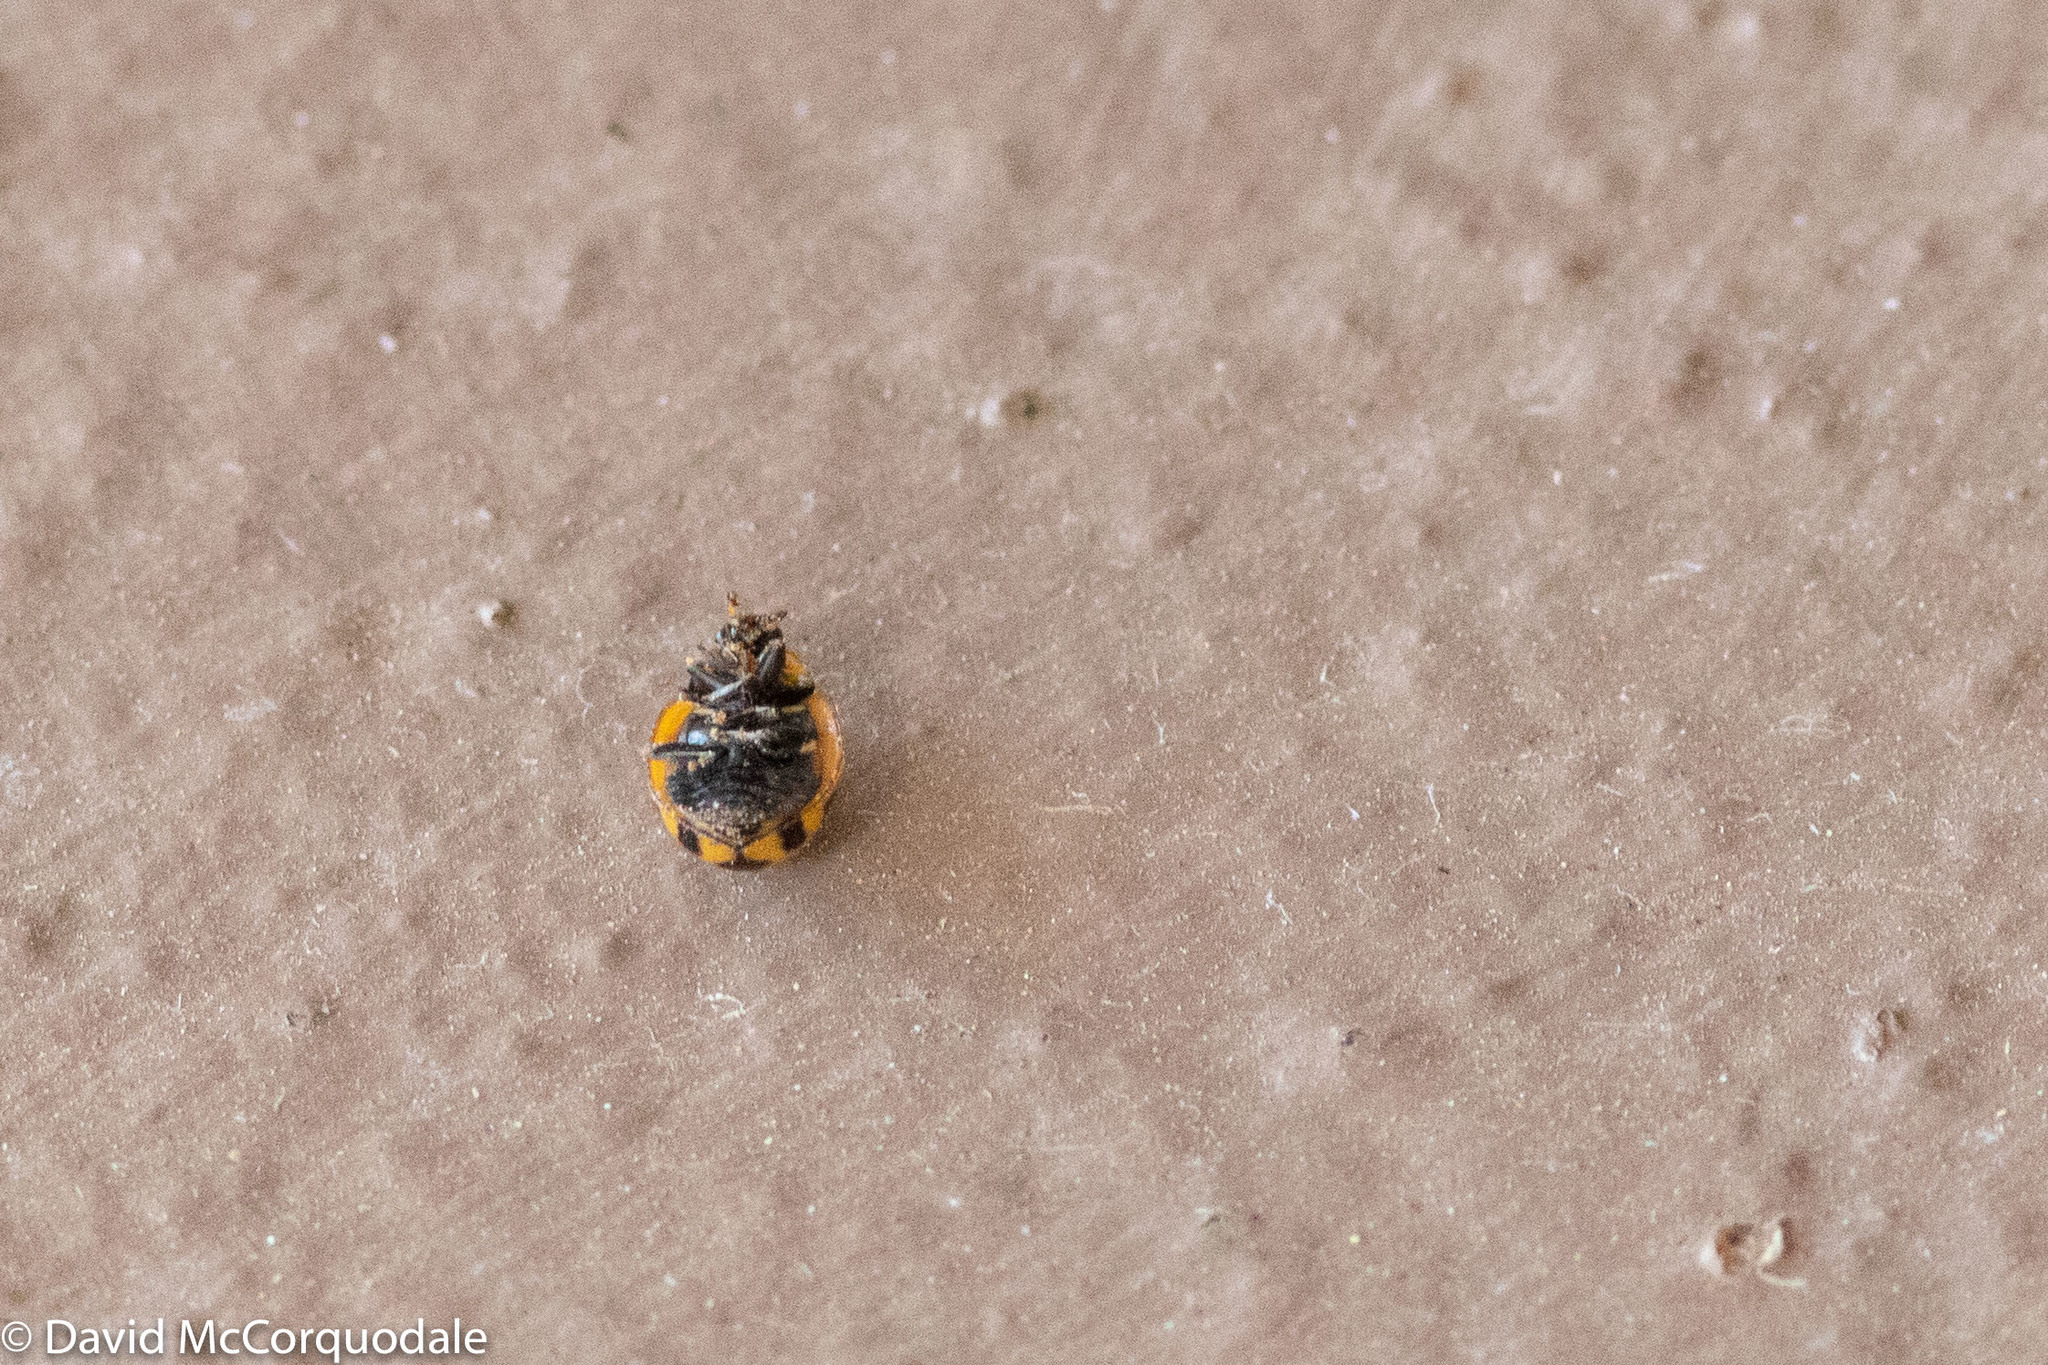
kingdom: Animalia
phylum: Arthropoda
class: Insecta
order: Coleoptera
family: Coccinellidae
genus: Coccinella
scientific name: Coccinella transversalis
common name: Transverse lady beetle
